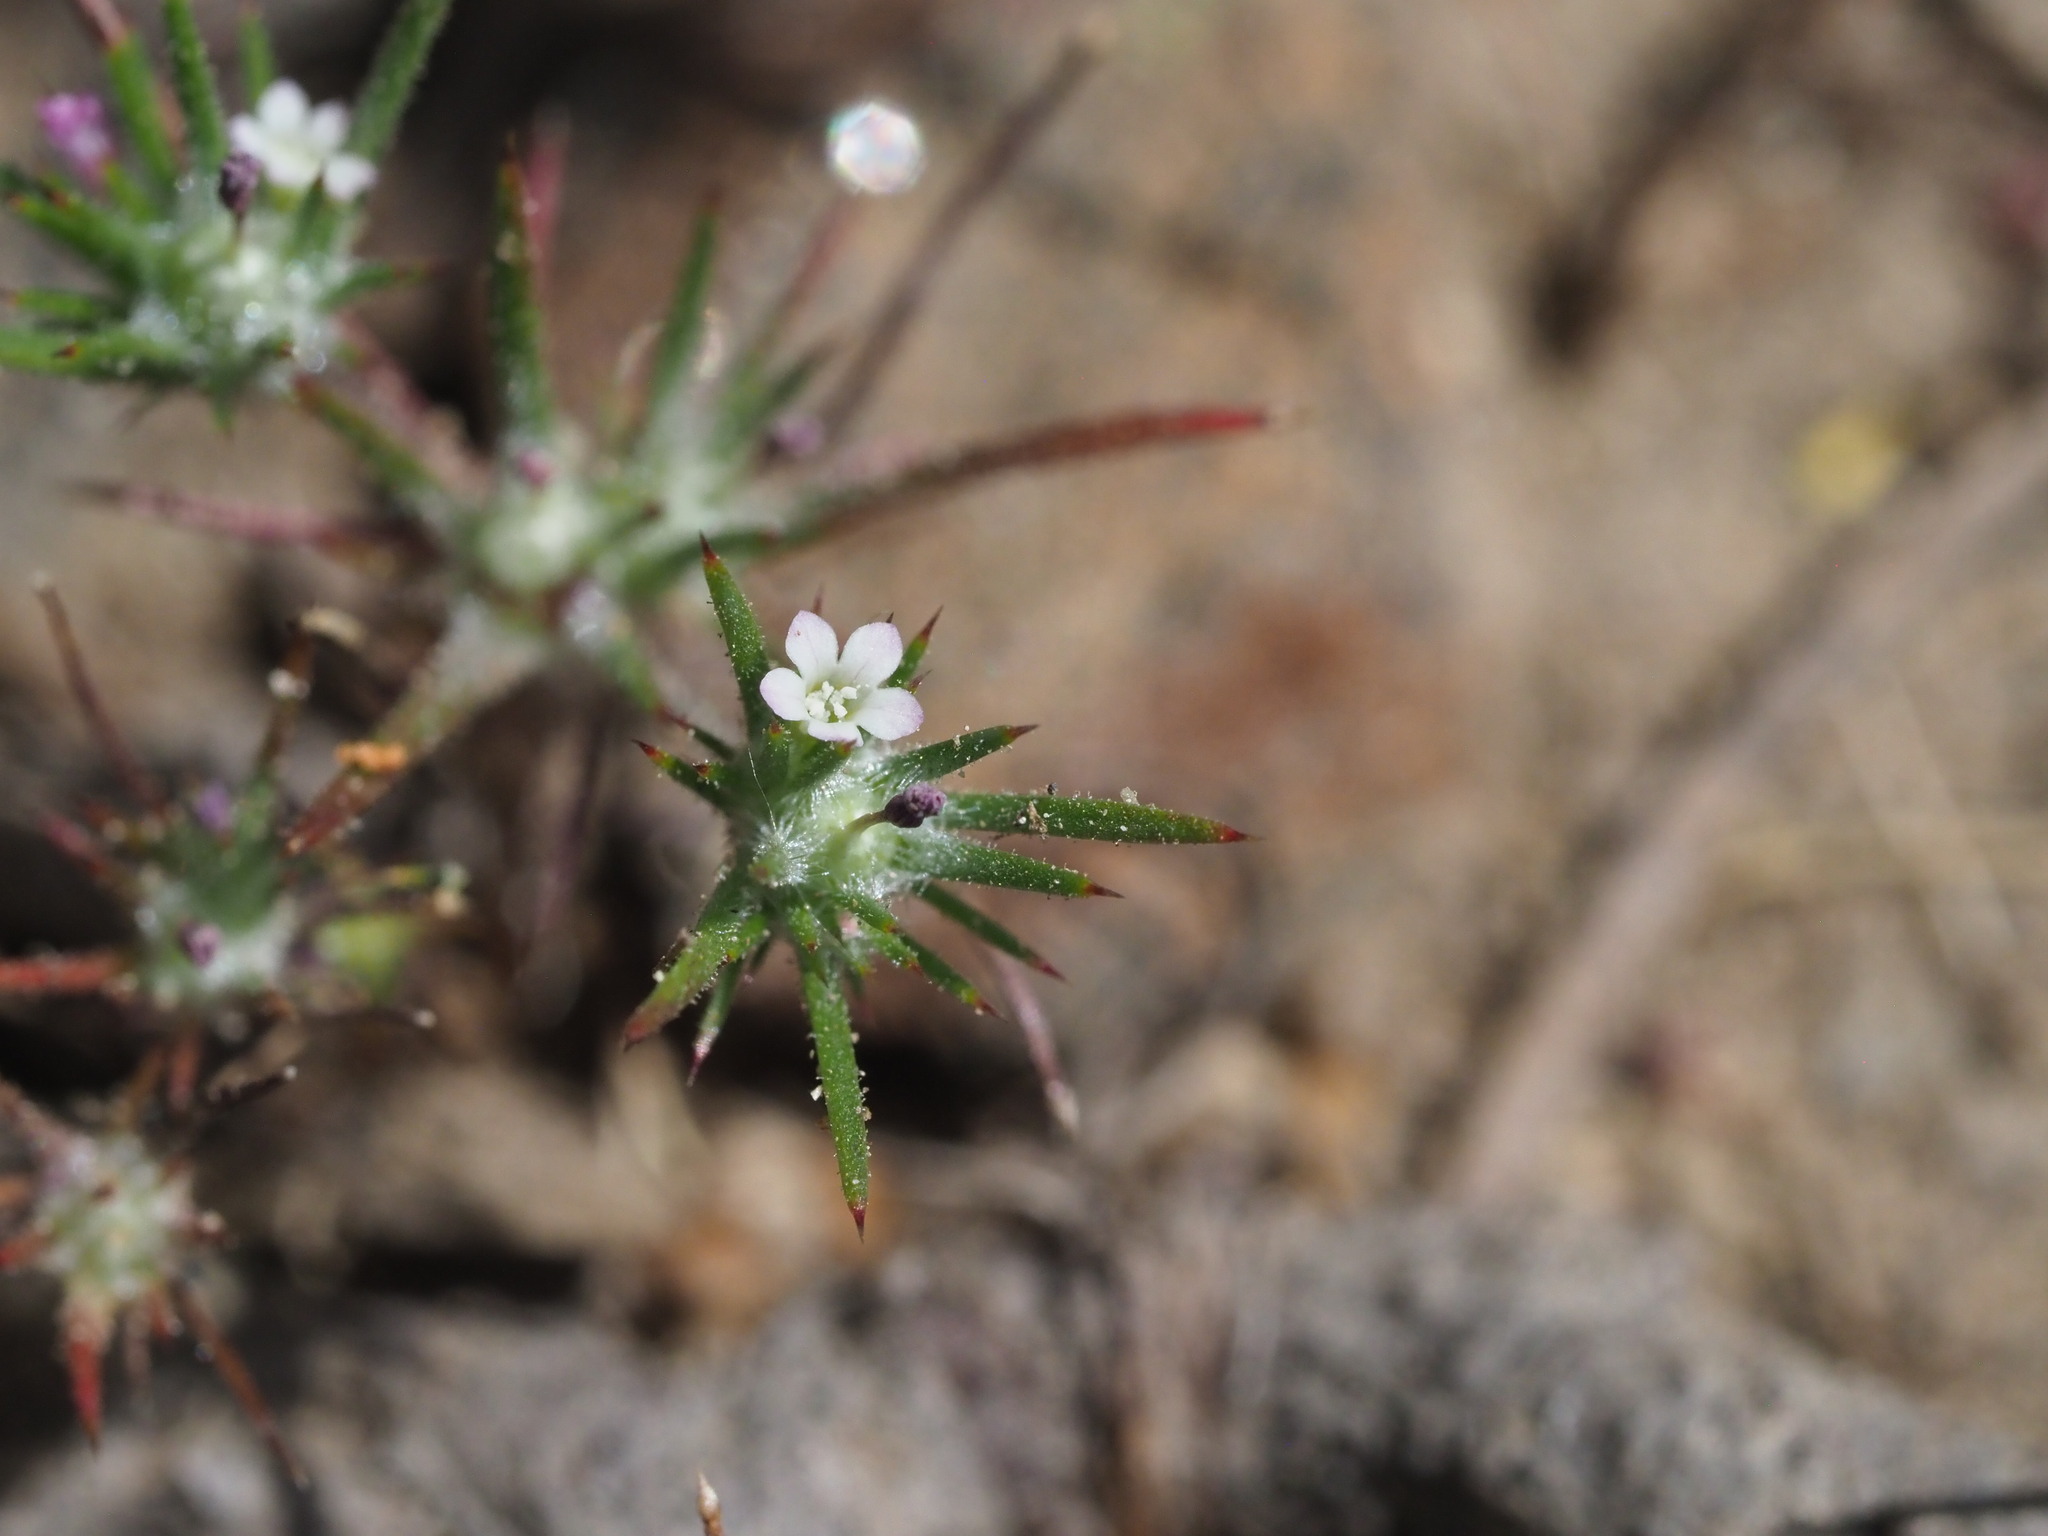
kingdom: Plantae
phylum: Tracheophyta
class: Magnoliopsida
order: Ericales
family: Polemoniaceae
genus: Navarretia
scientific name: Navarretia divaricata
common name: Mountain navarretia
